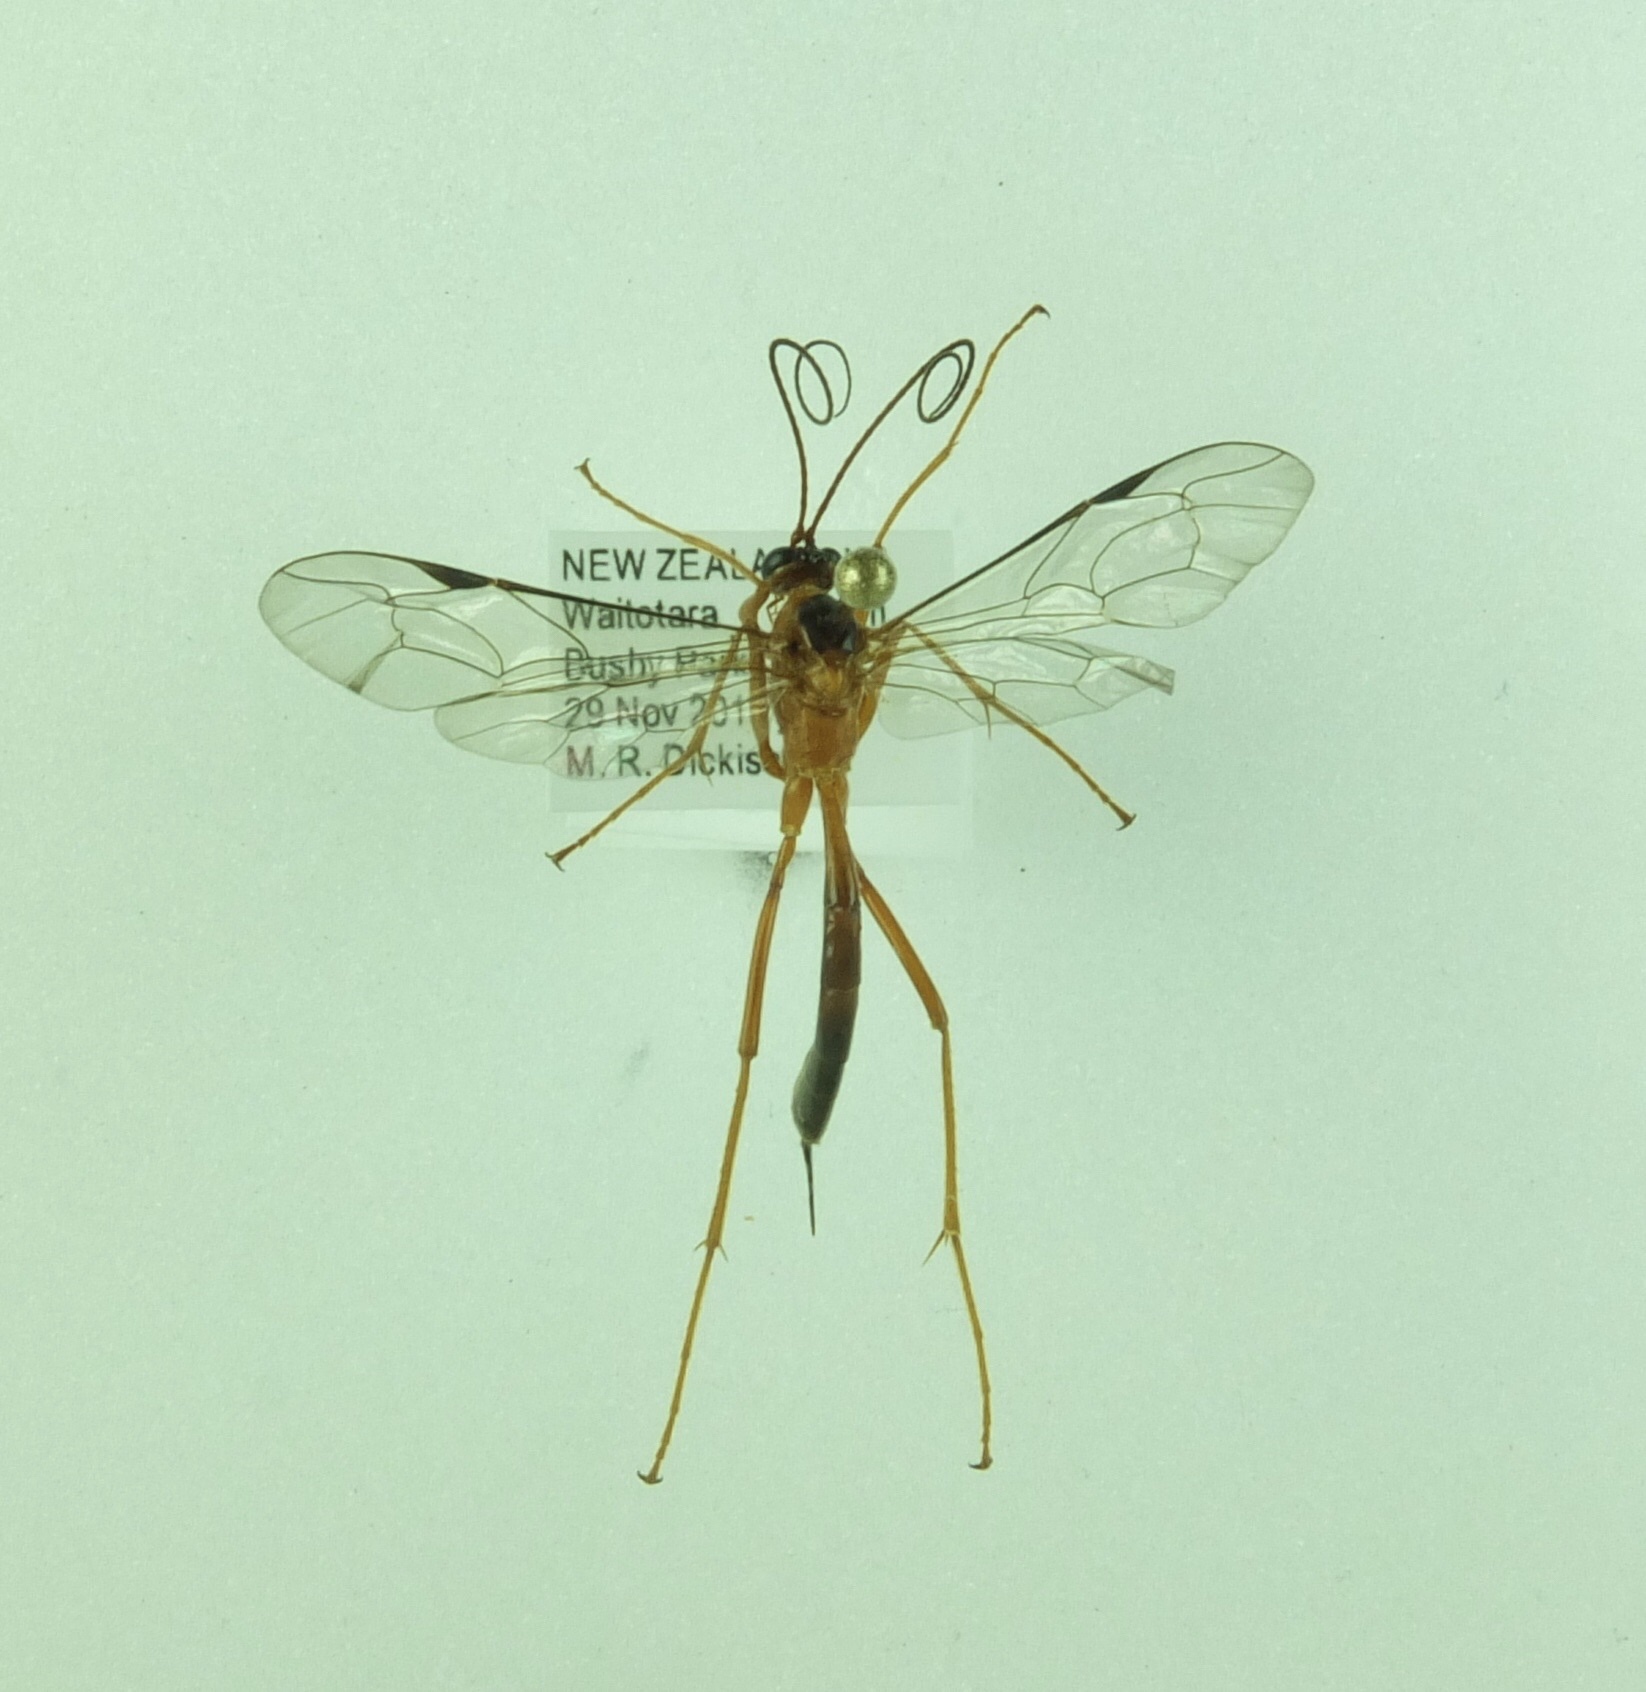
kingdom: Animalia
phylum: Arthropoda
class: Insecta
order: Hymenoptera
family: Ichneumonidae
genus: Netelia
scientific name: Netelia ephippiata
